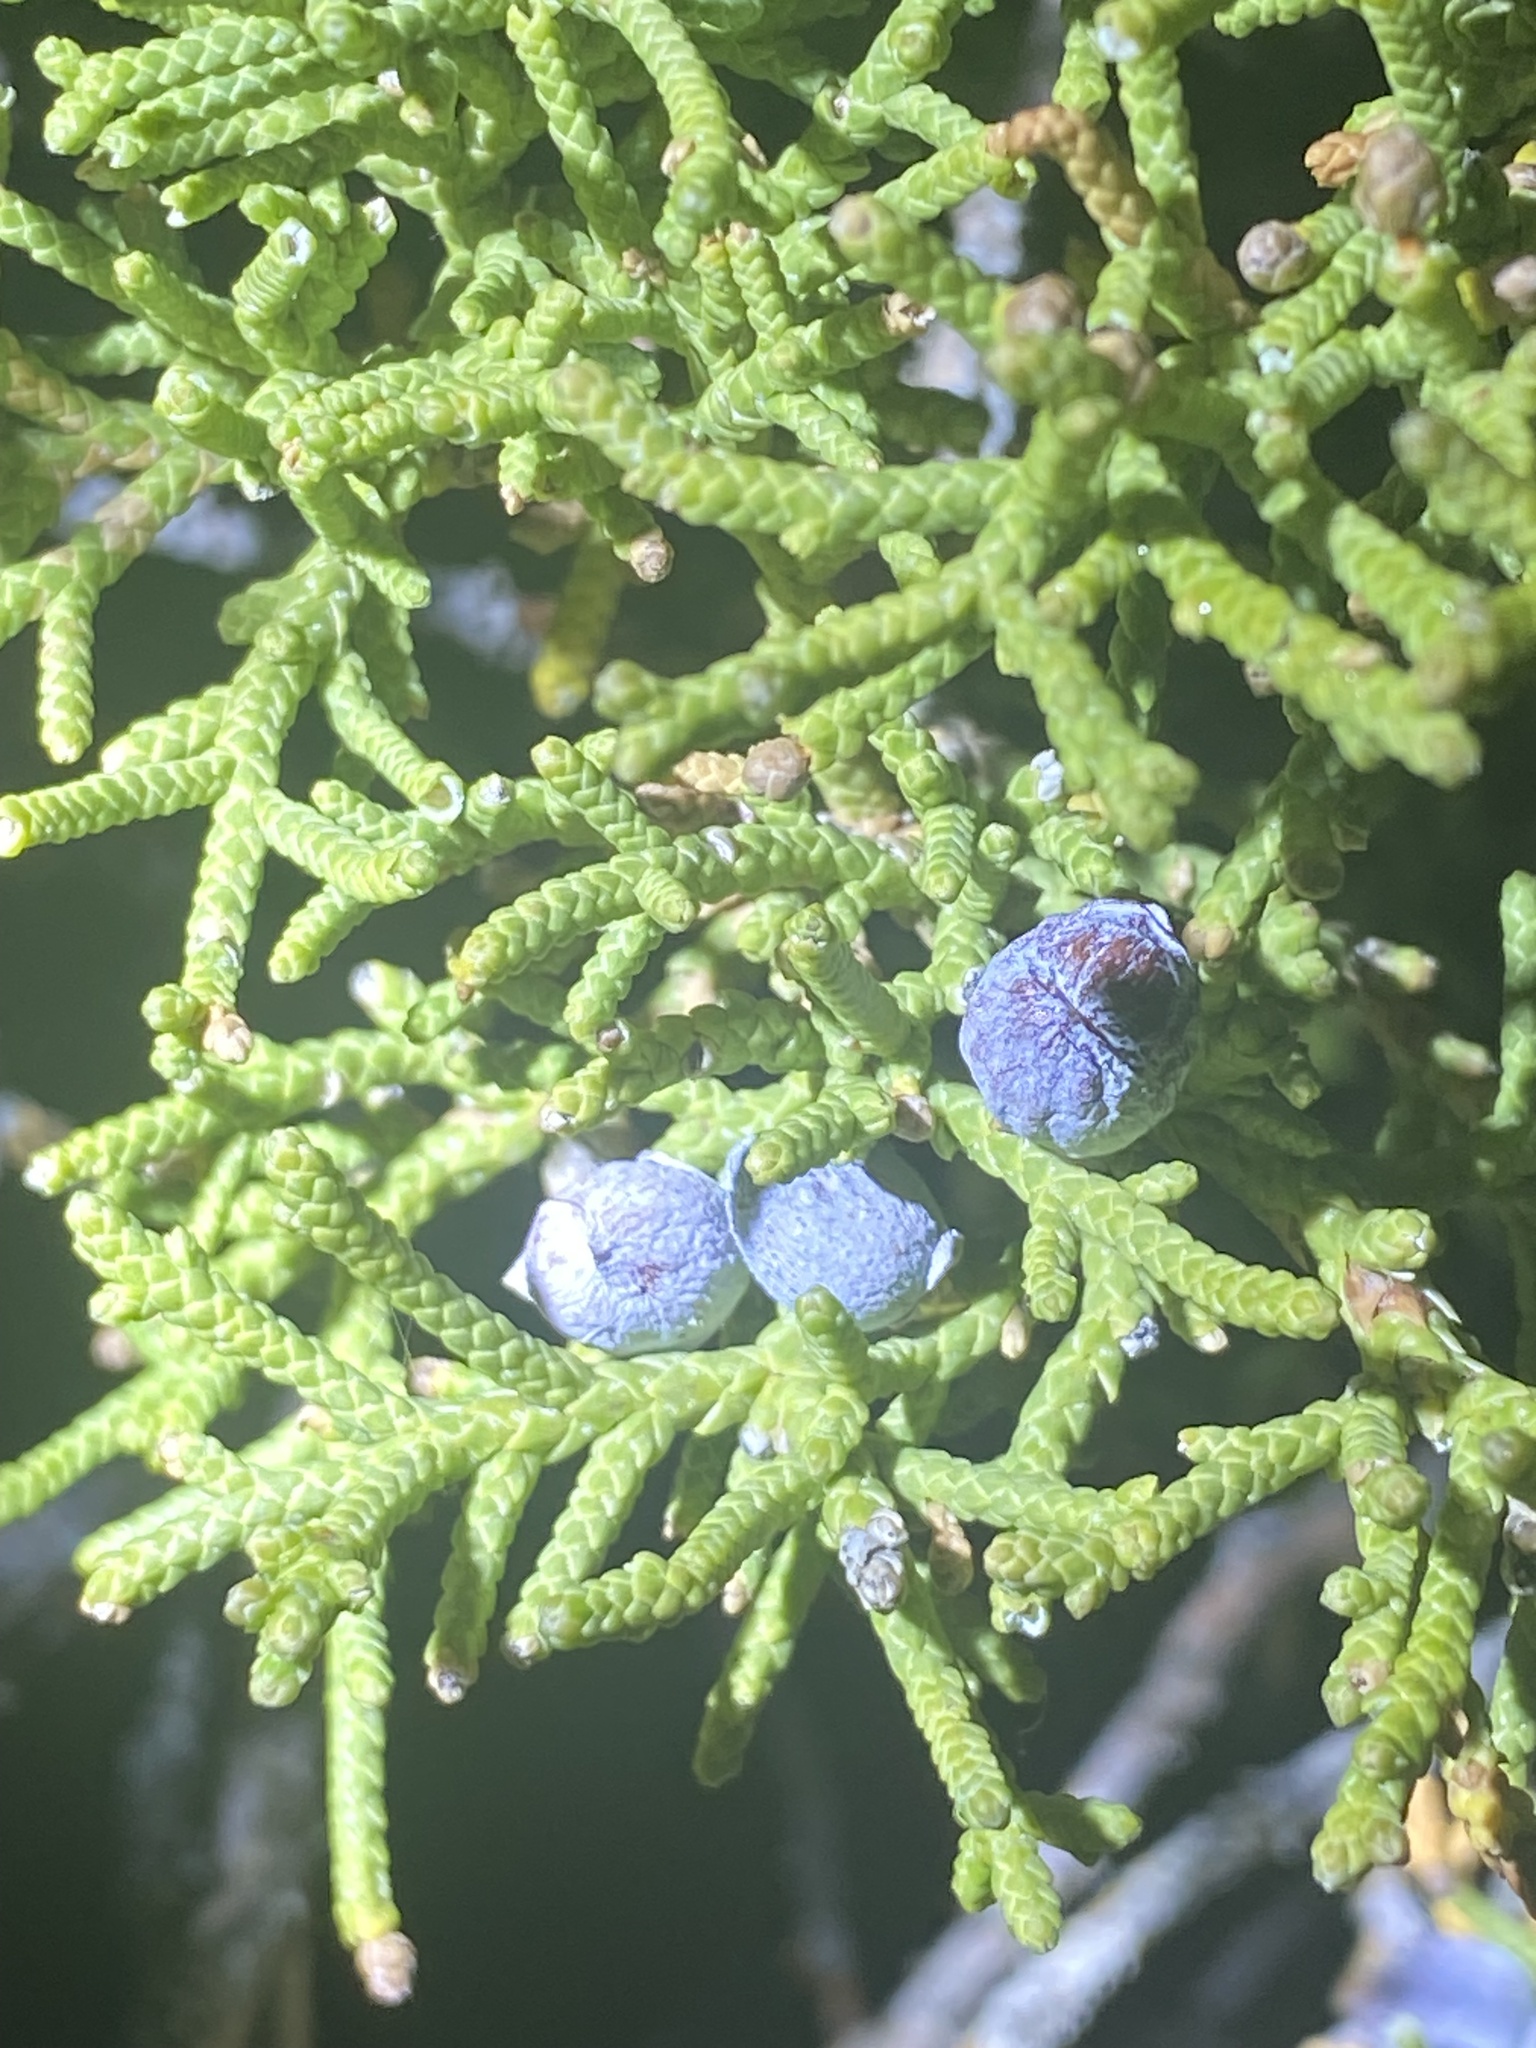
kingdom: Plantae
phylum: Tracheophyta
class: Pinopsida
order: Pinales
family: Cupressaceae
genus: Juniperus
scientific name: Juniperus osteosperma
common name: Utah juniper
